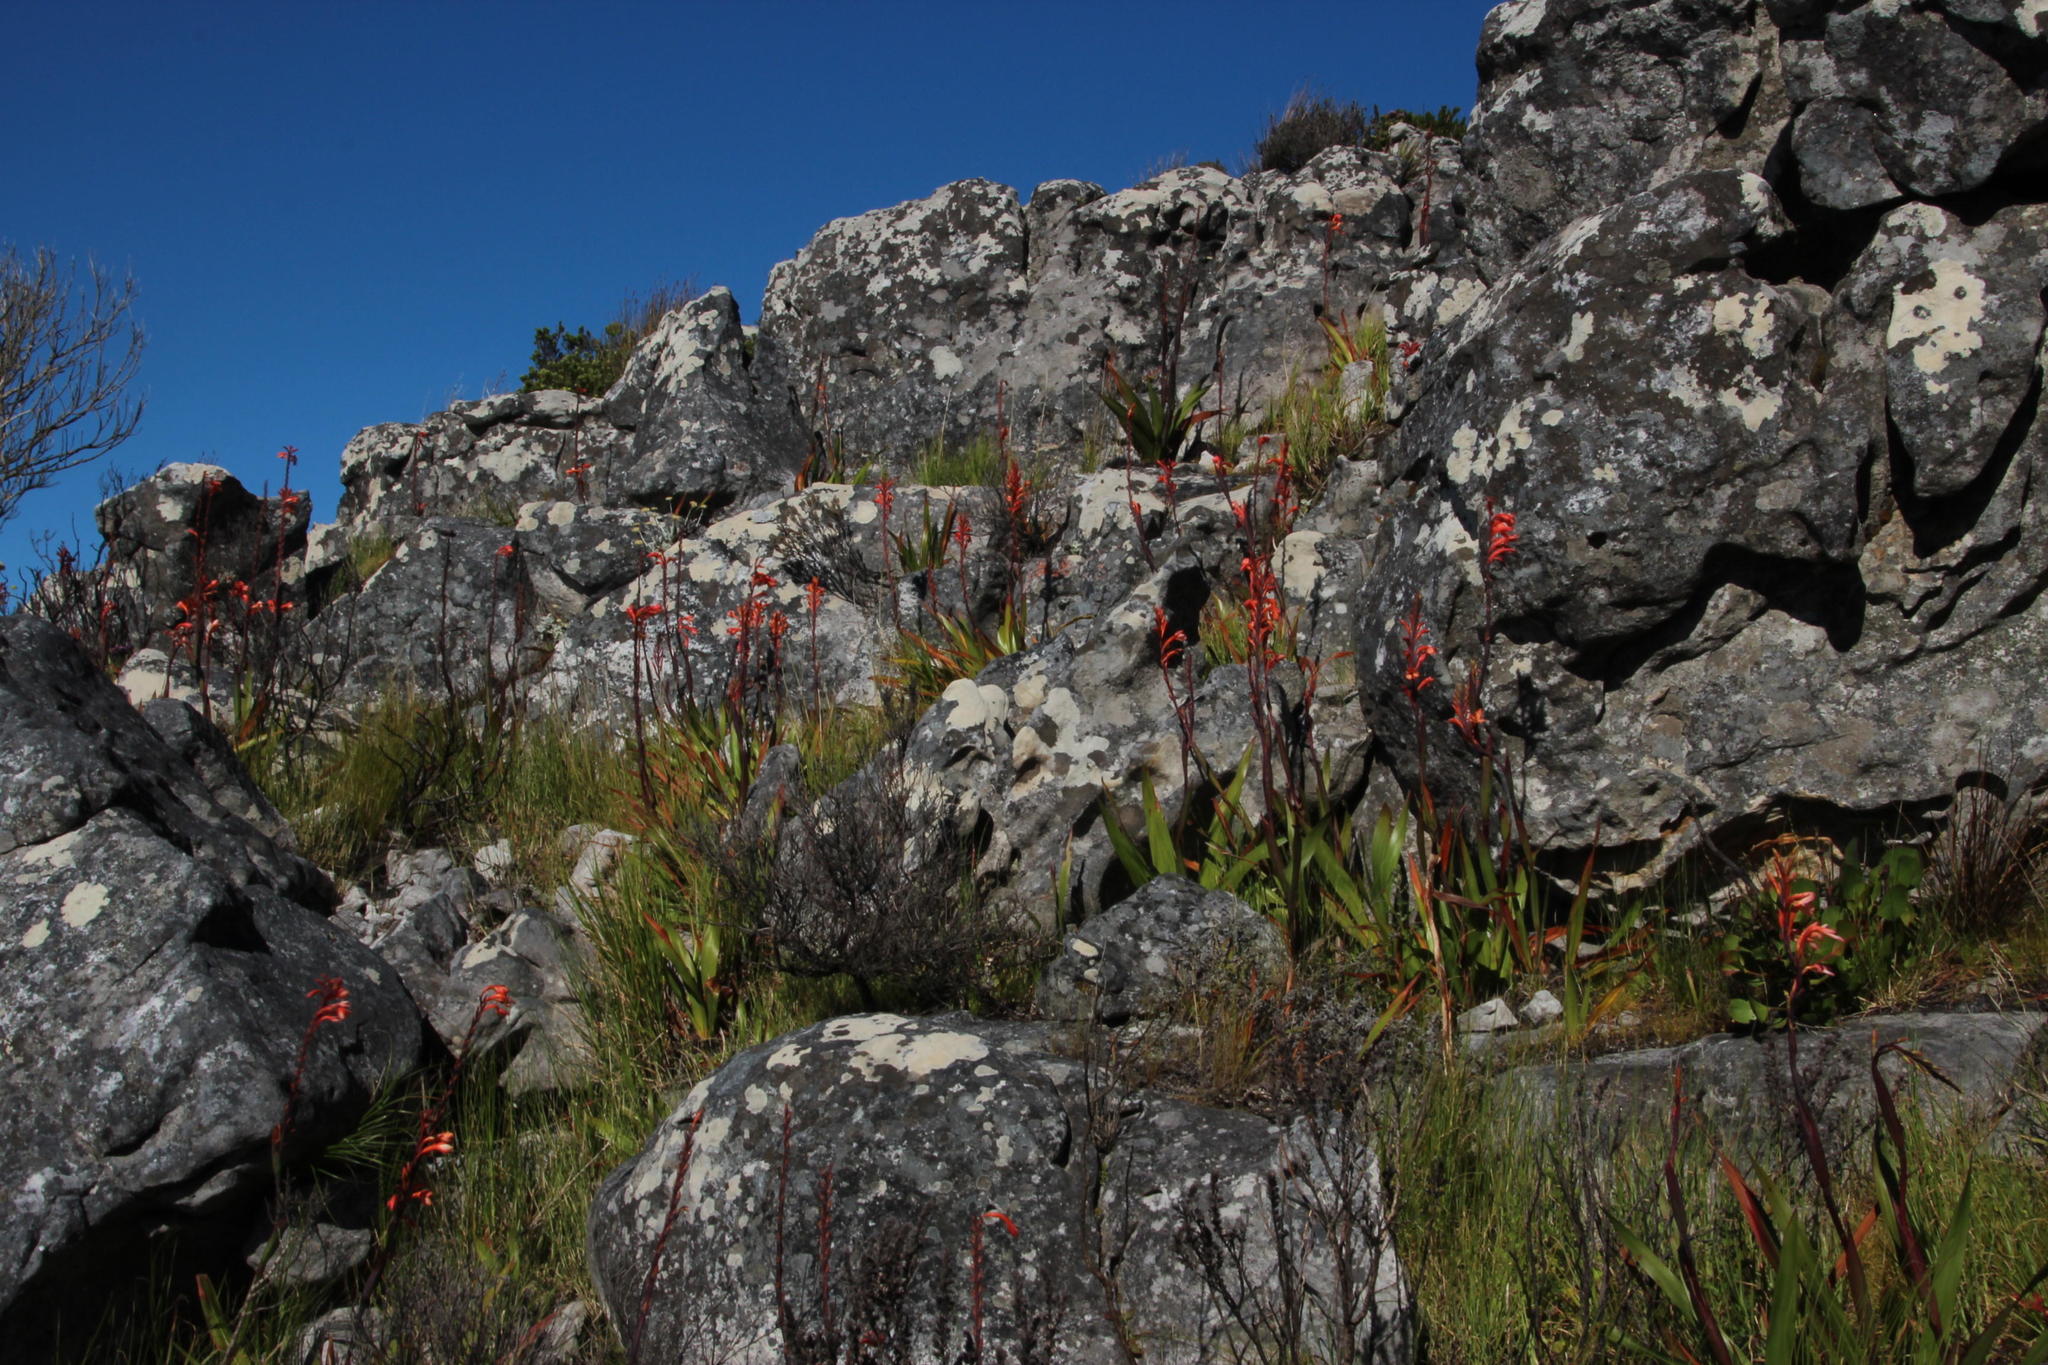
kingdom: Plantae
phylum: Tracheophyta
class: Liliopsida
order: Asparagales
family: Iridaceae
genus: Watsonia
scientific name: Watsonia tabularis
